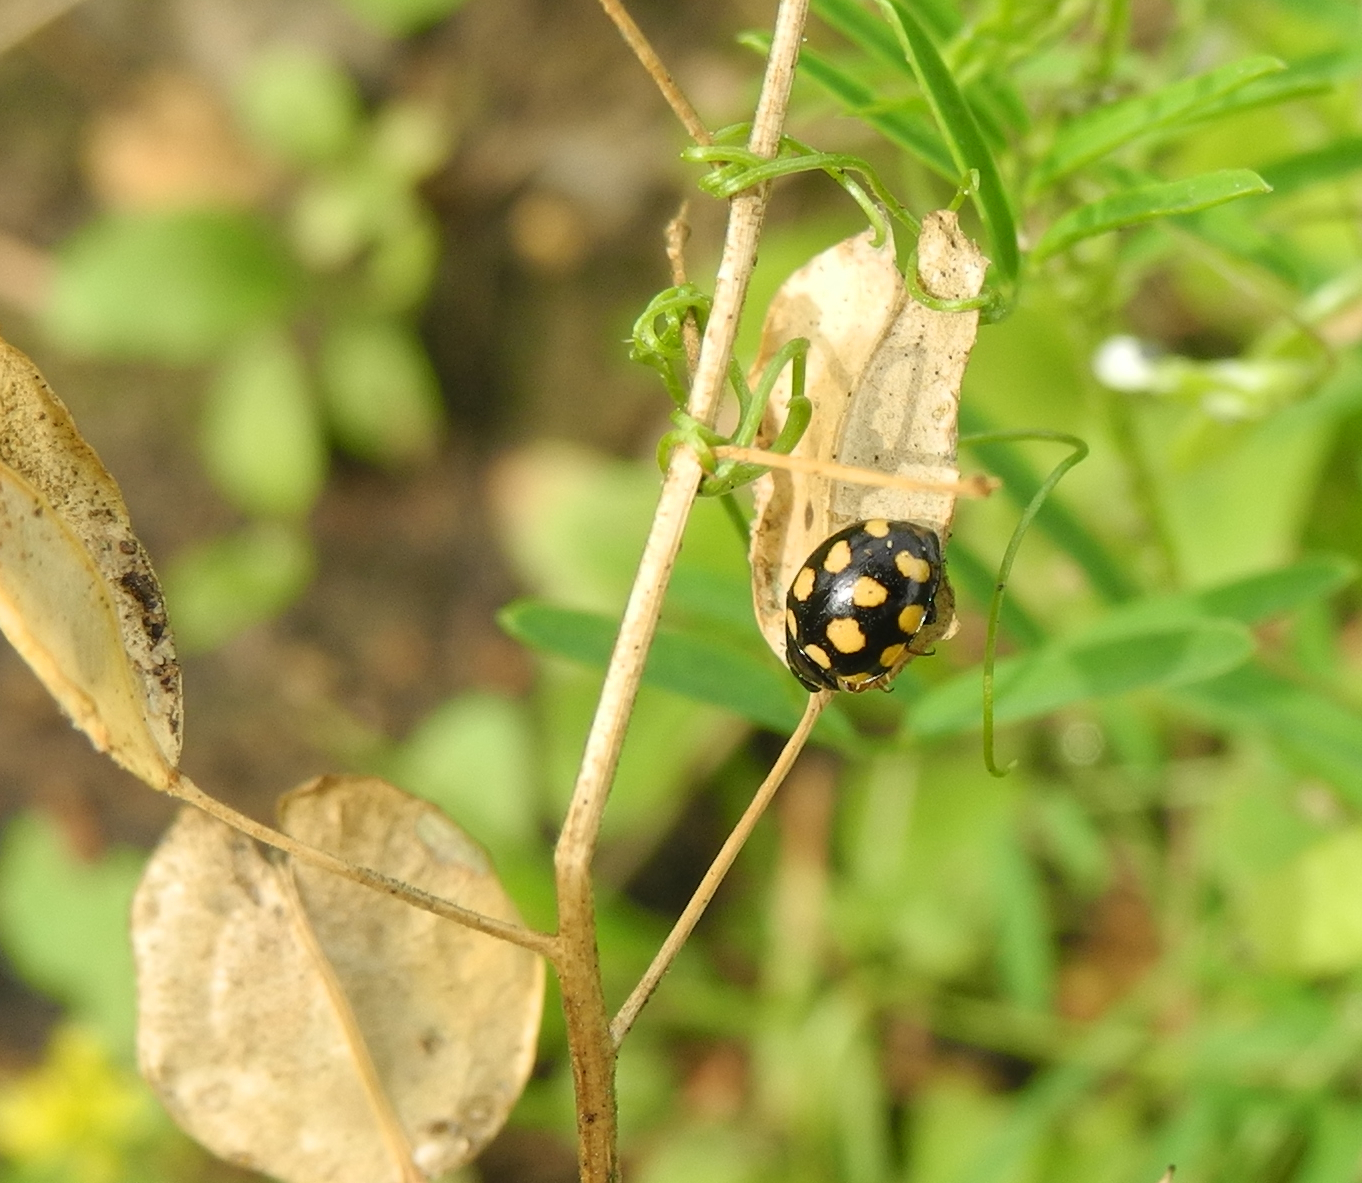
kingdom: Animalia
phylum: Arthropoda
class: Insecta
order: Coleoptera
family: Coccinellidae
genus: Coccinula
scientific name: Coccinula quatuordecimpustulata
